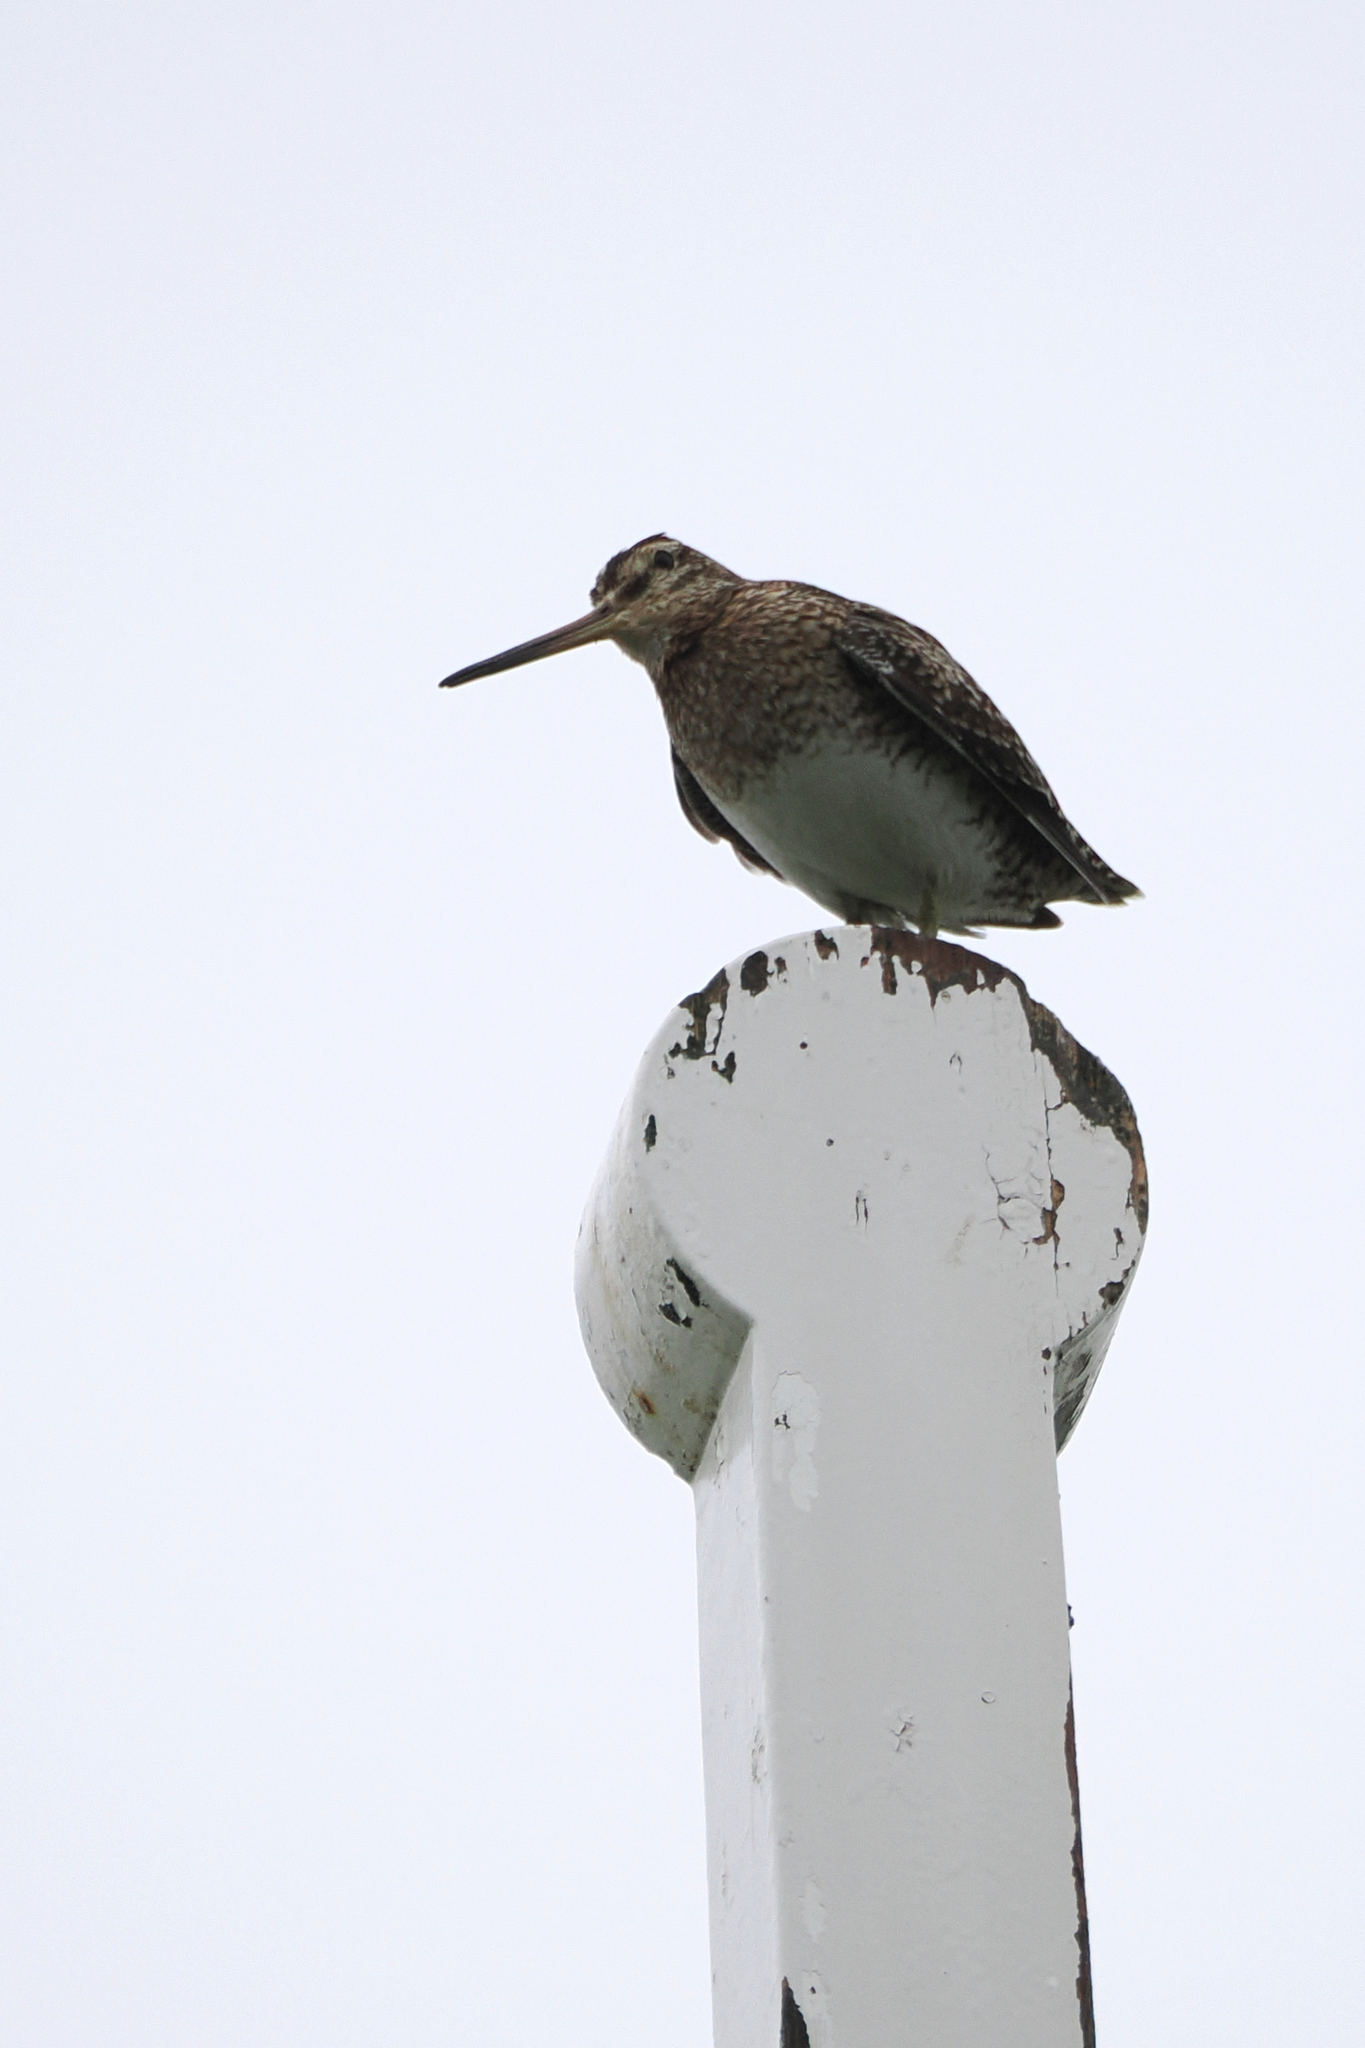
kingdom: Animalia
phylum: Chordata
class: Aves
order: Charadriiformes
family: Scolopacidae
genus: Gallinago
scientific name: Gallinago gallinago
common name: Common snipe
